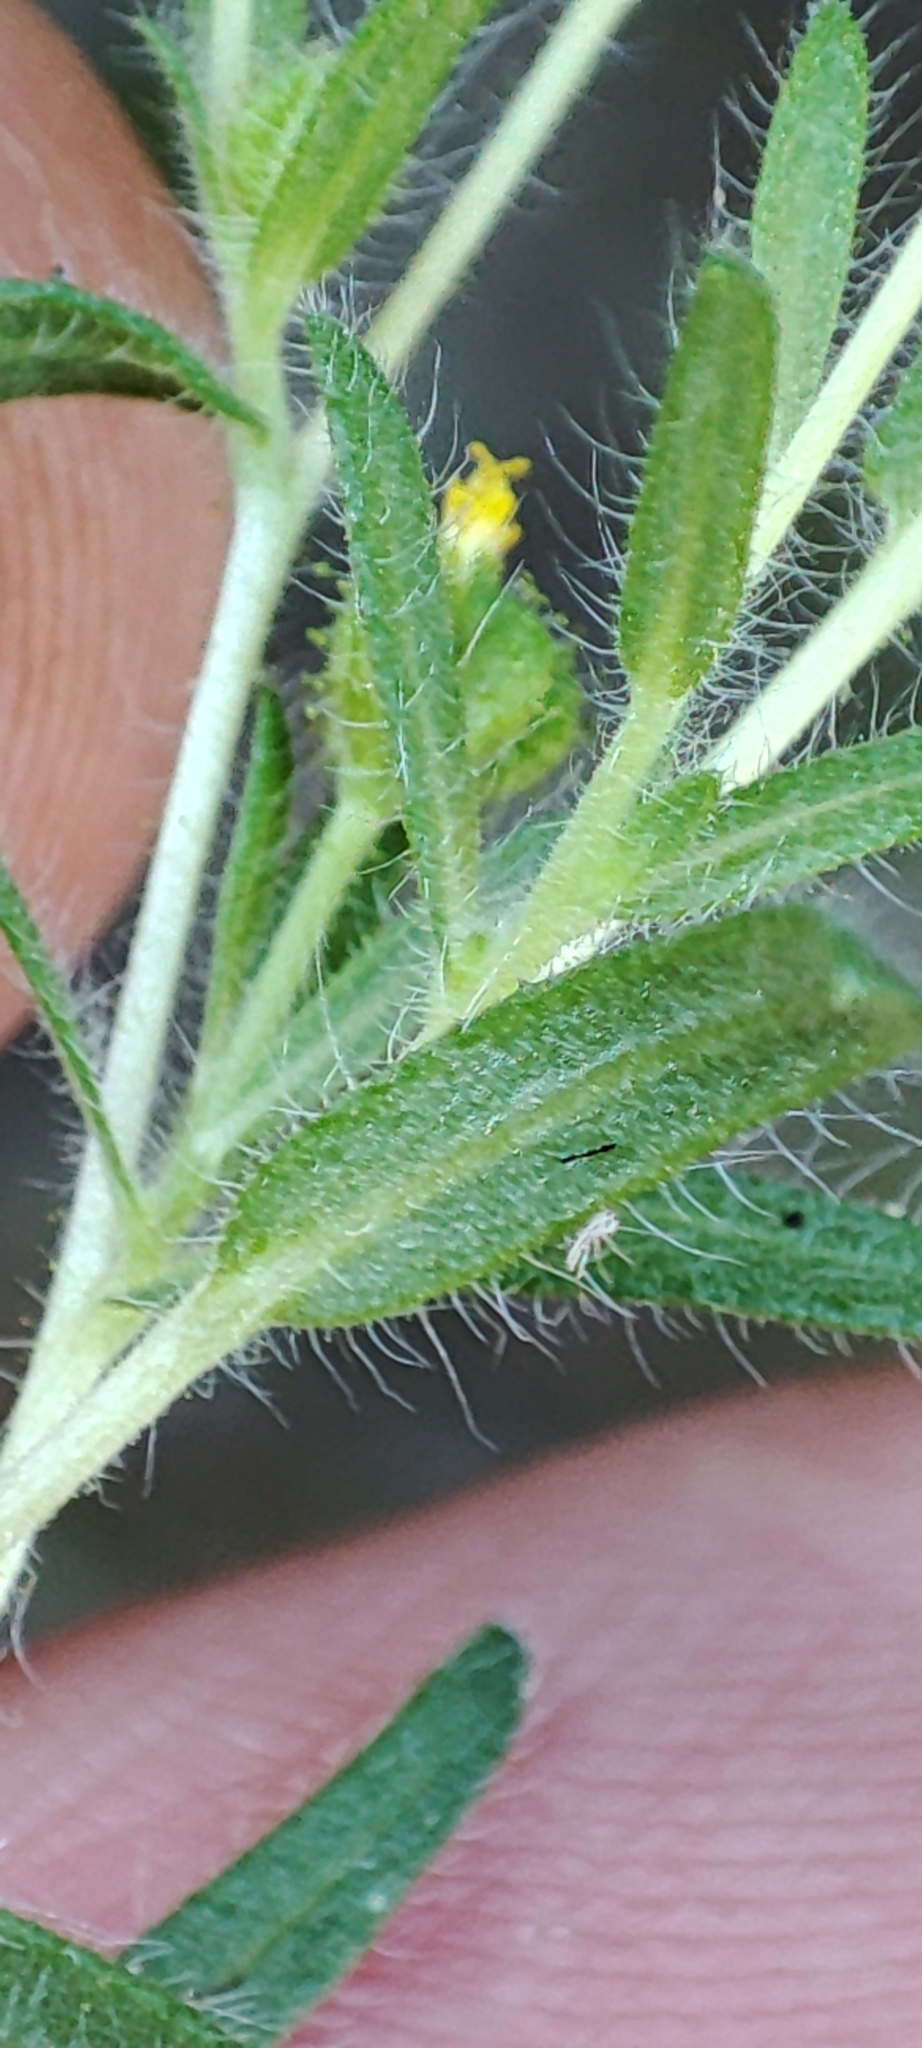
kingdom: Plantae
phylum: Tracheophyta
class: Magnoliopsida
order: Asterales
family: Asteraceae
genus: Madia
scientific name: Madia exigua
